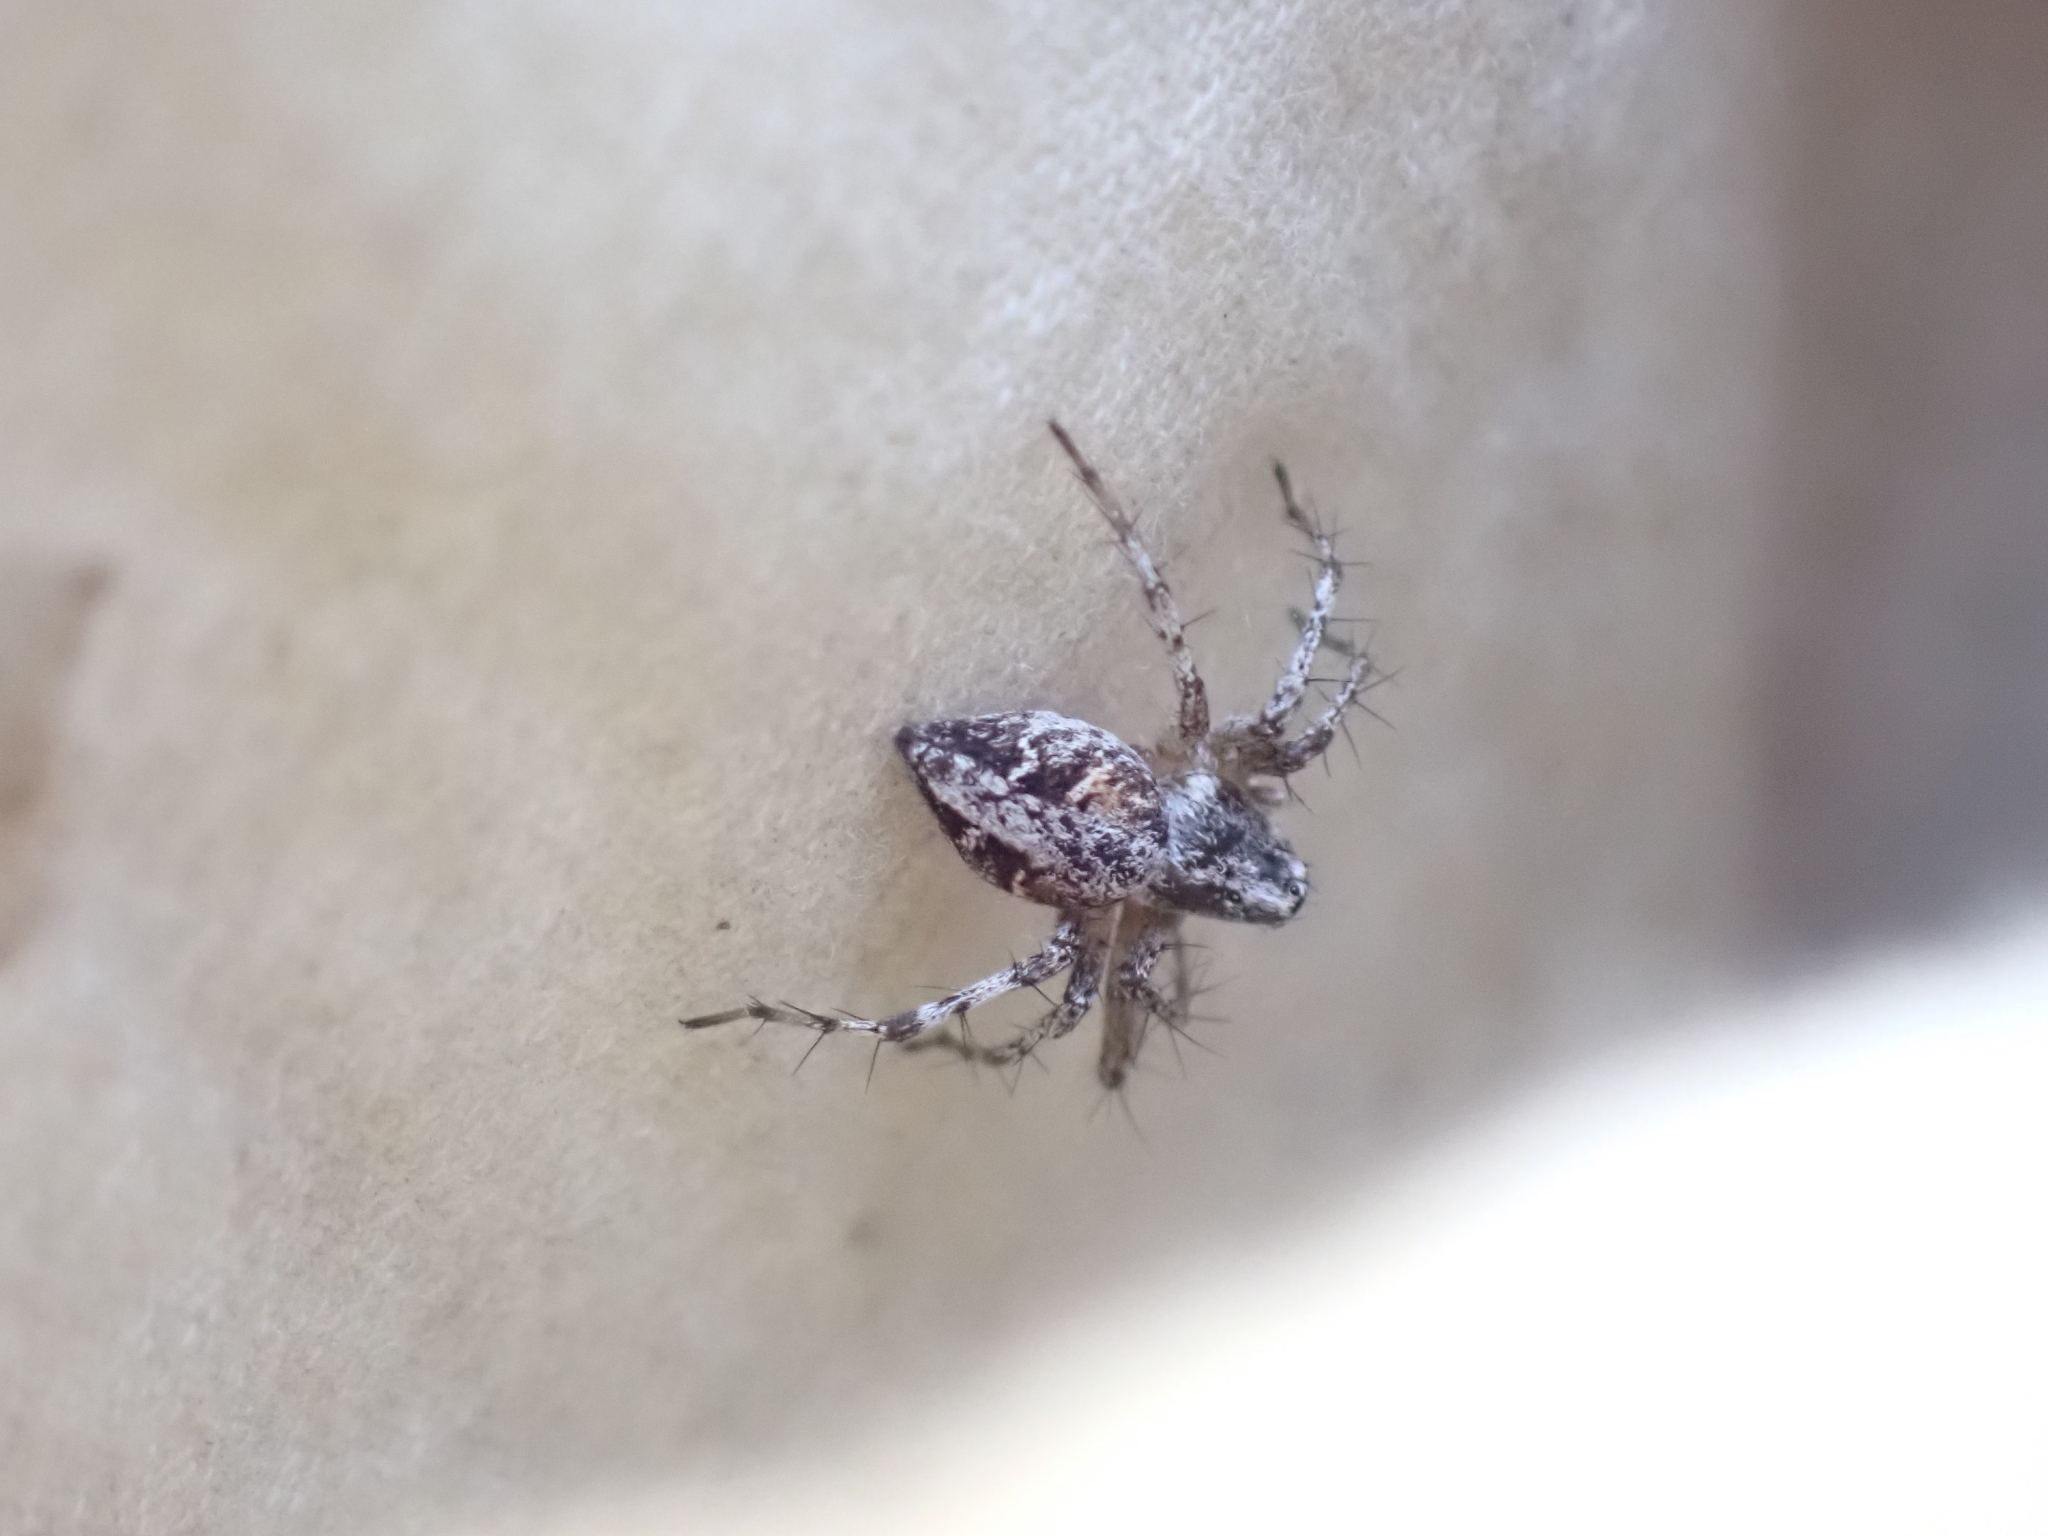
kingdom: Animalia
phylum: Arthropoda
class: Arachnida
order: Araneae
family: Oxyopidae
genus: Oxyopes
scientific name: Oxyopes scalaris
